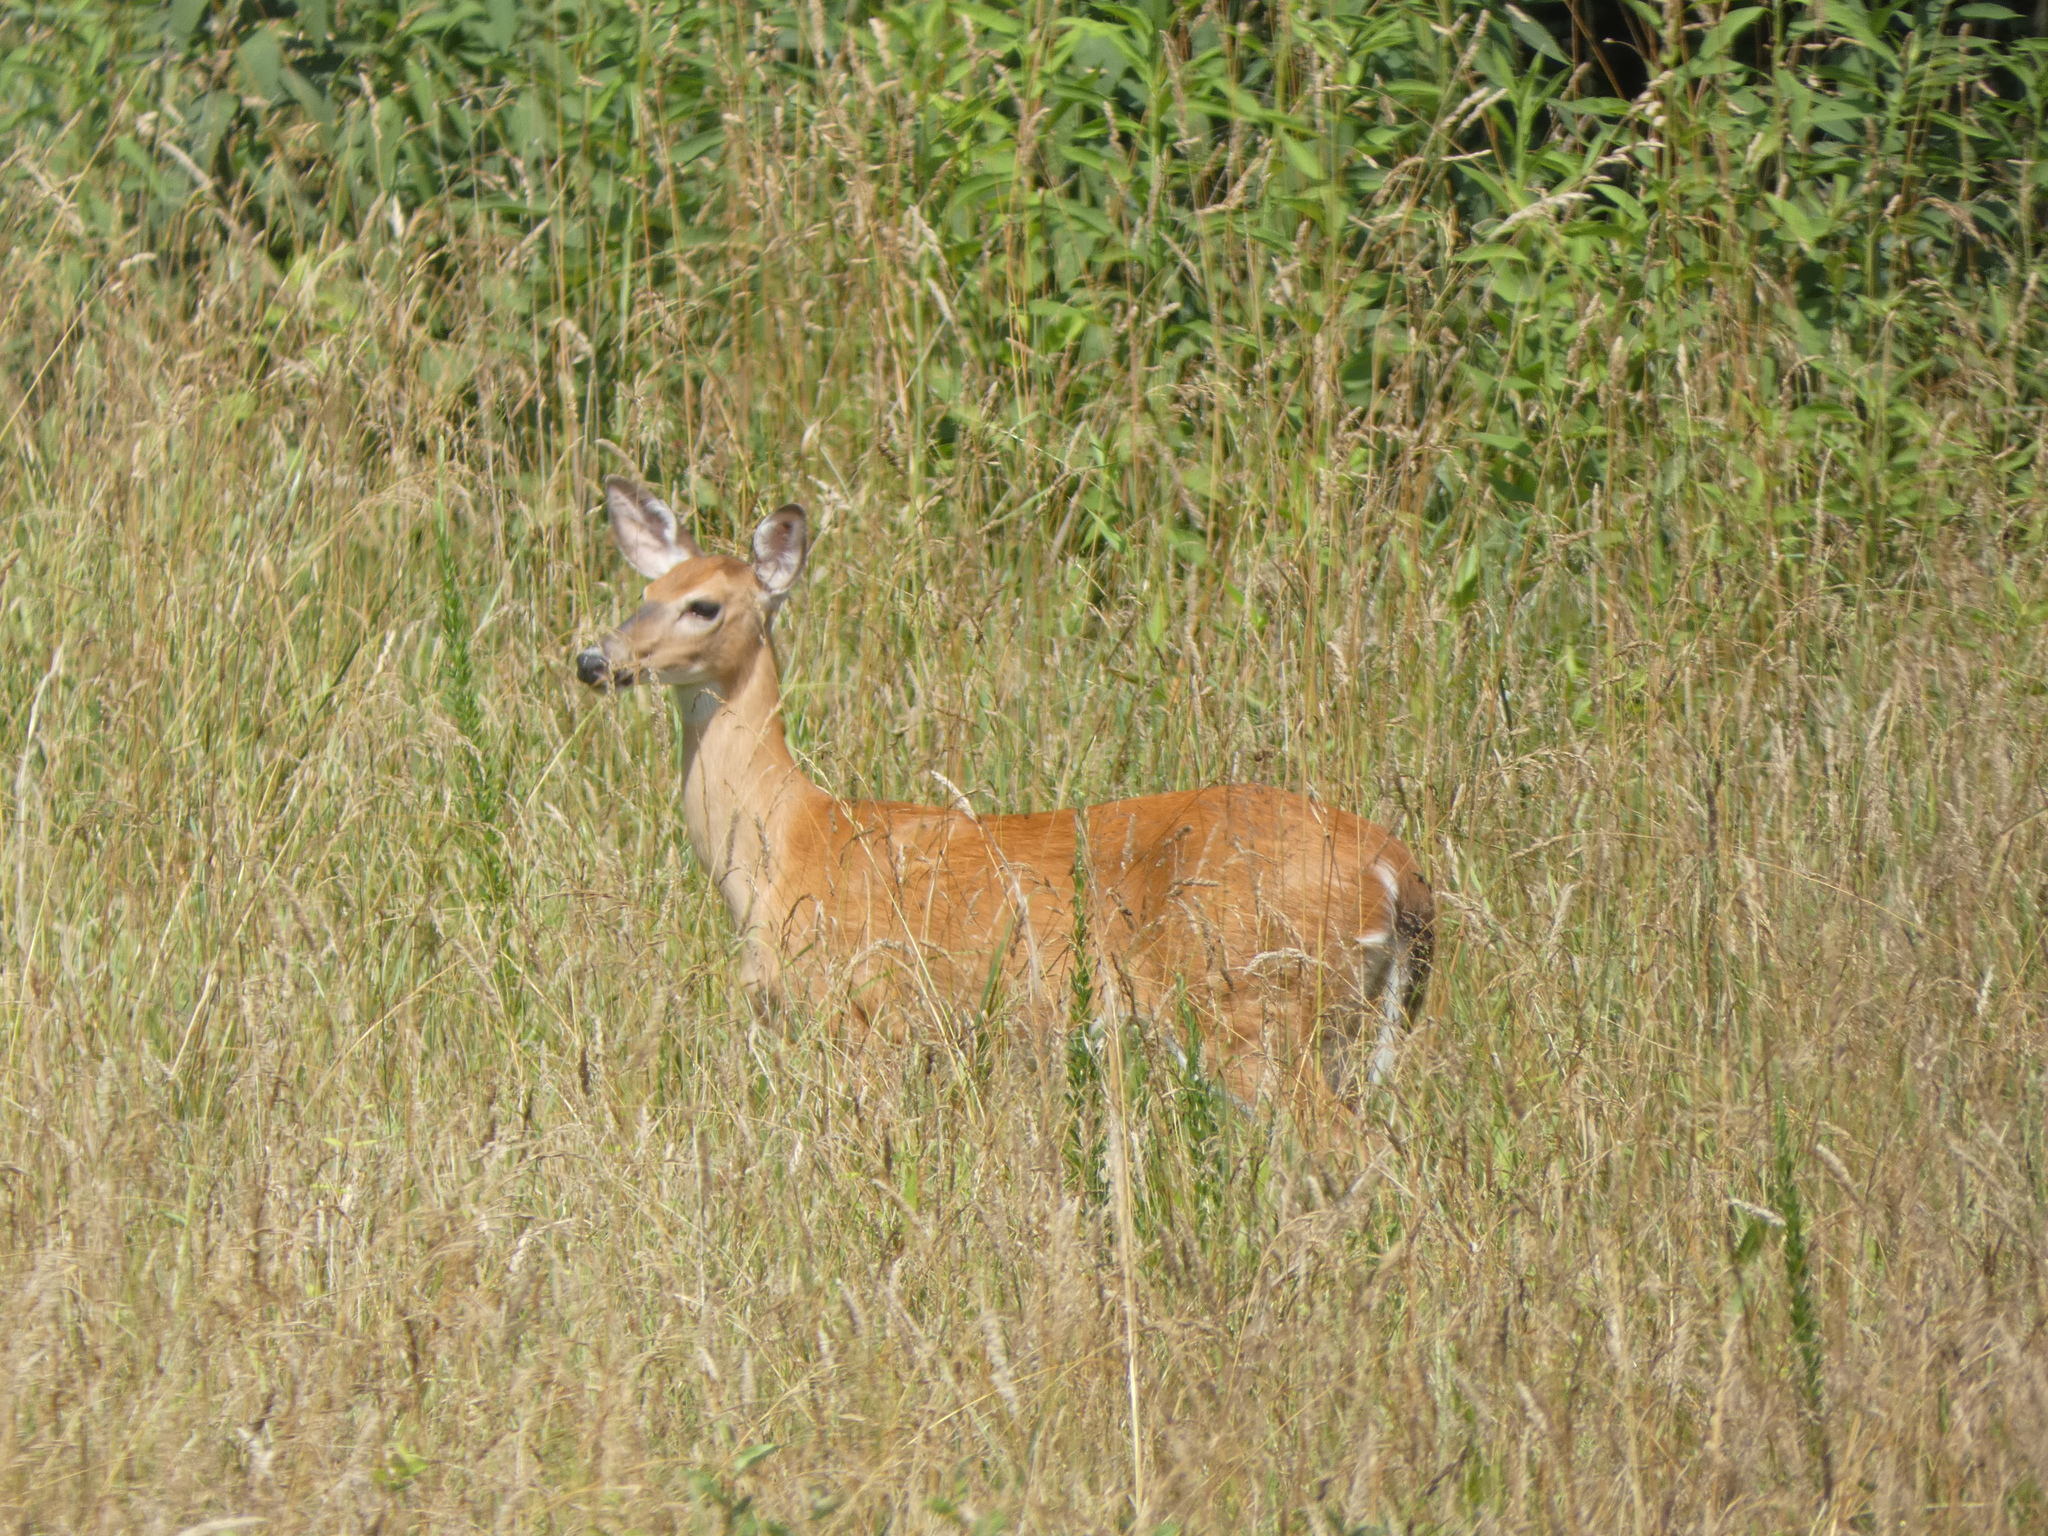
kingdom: Animalia
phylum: Chordata
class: Mammalia
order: Artiodactyla
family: Cervidae
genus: Odocoileus
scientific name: Odocoileus virginianus
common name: White-tailed deer
